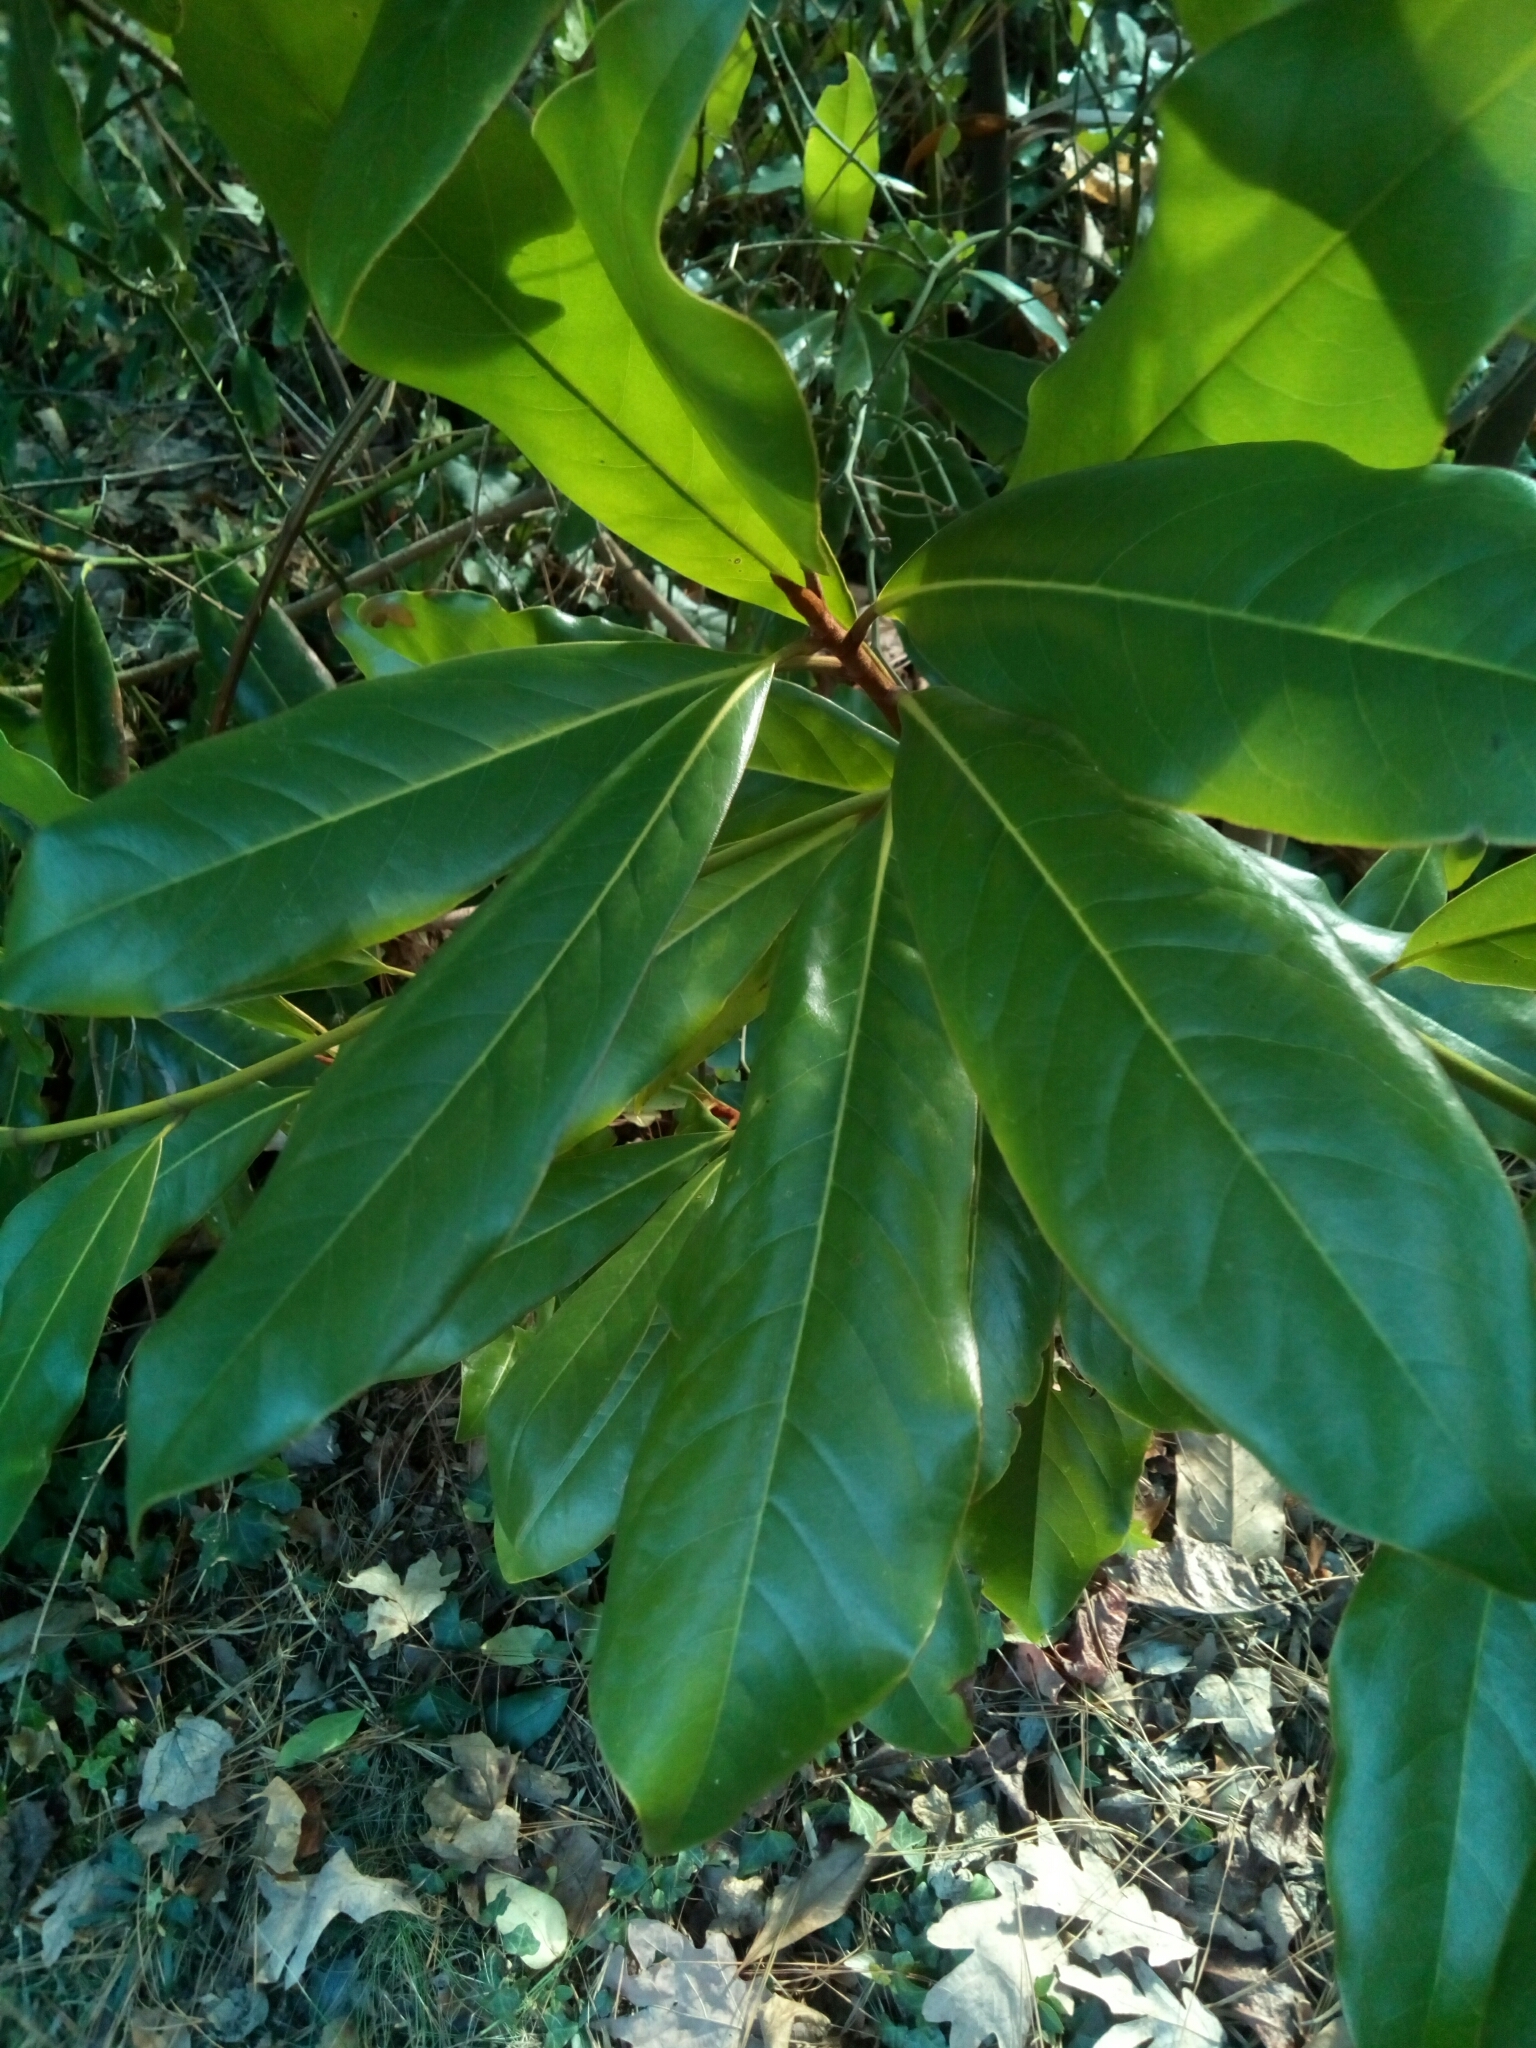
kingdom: Plantae
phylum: Tracheophyta
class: Magnoliopsida
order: Magnoliales
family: Magnoliaceae
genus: Magnolia
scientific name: Magnolia grandiflora
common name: Southern magnolia
